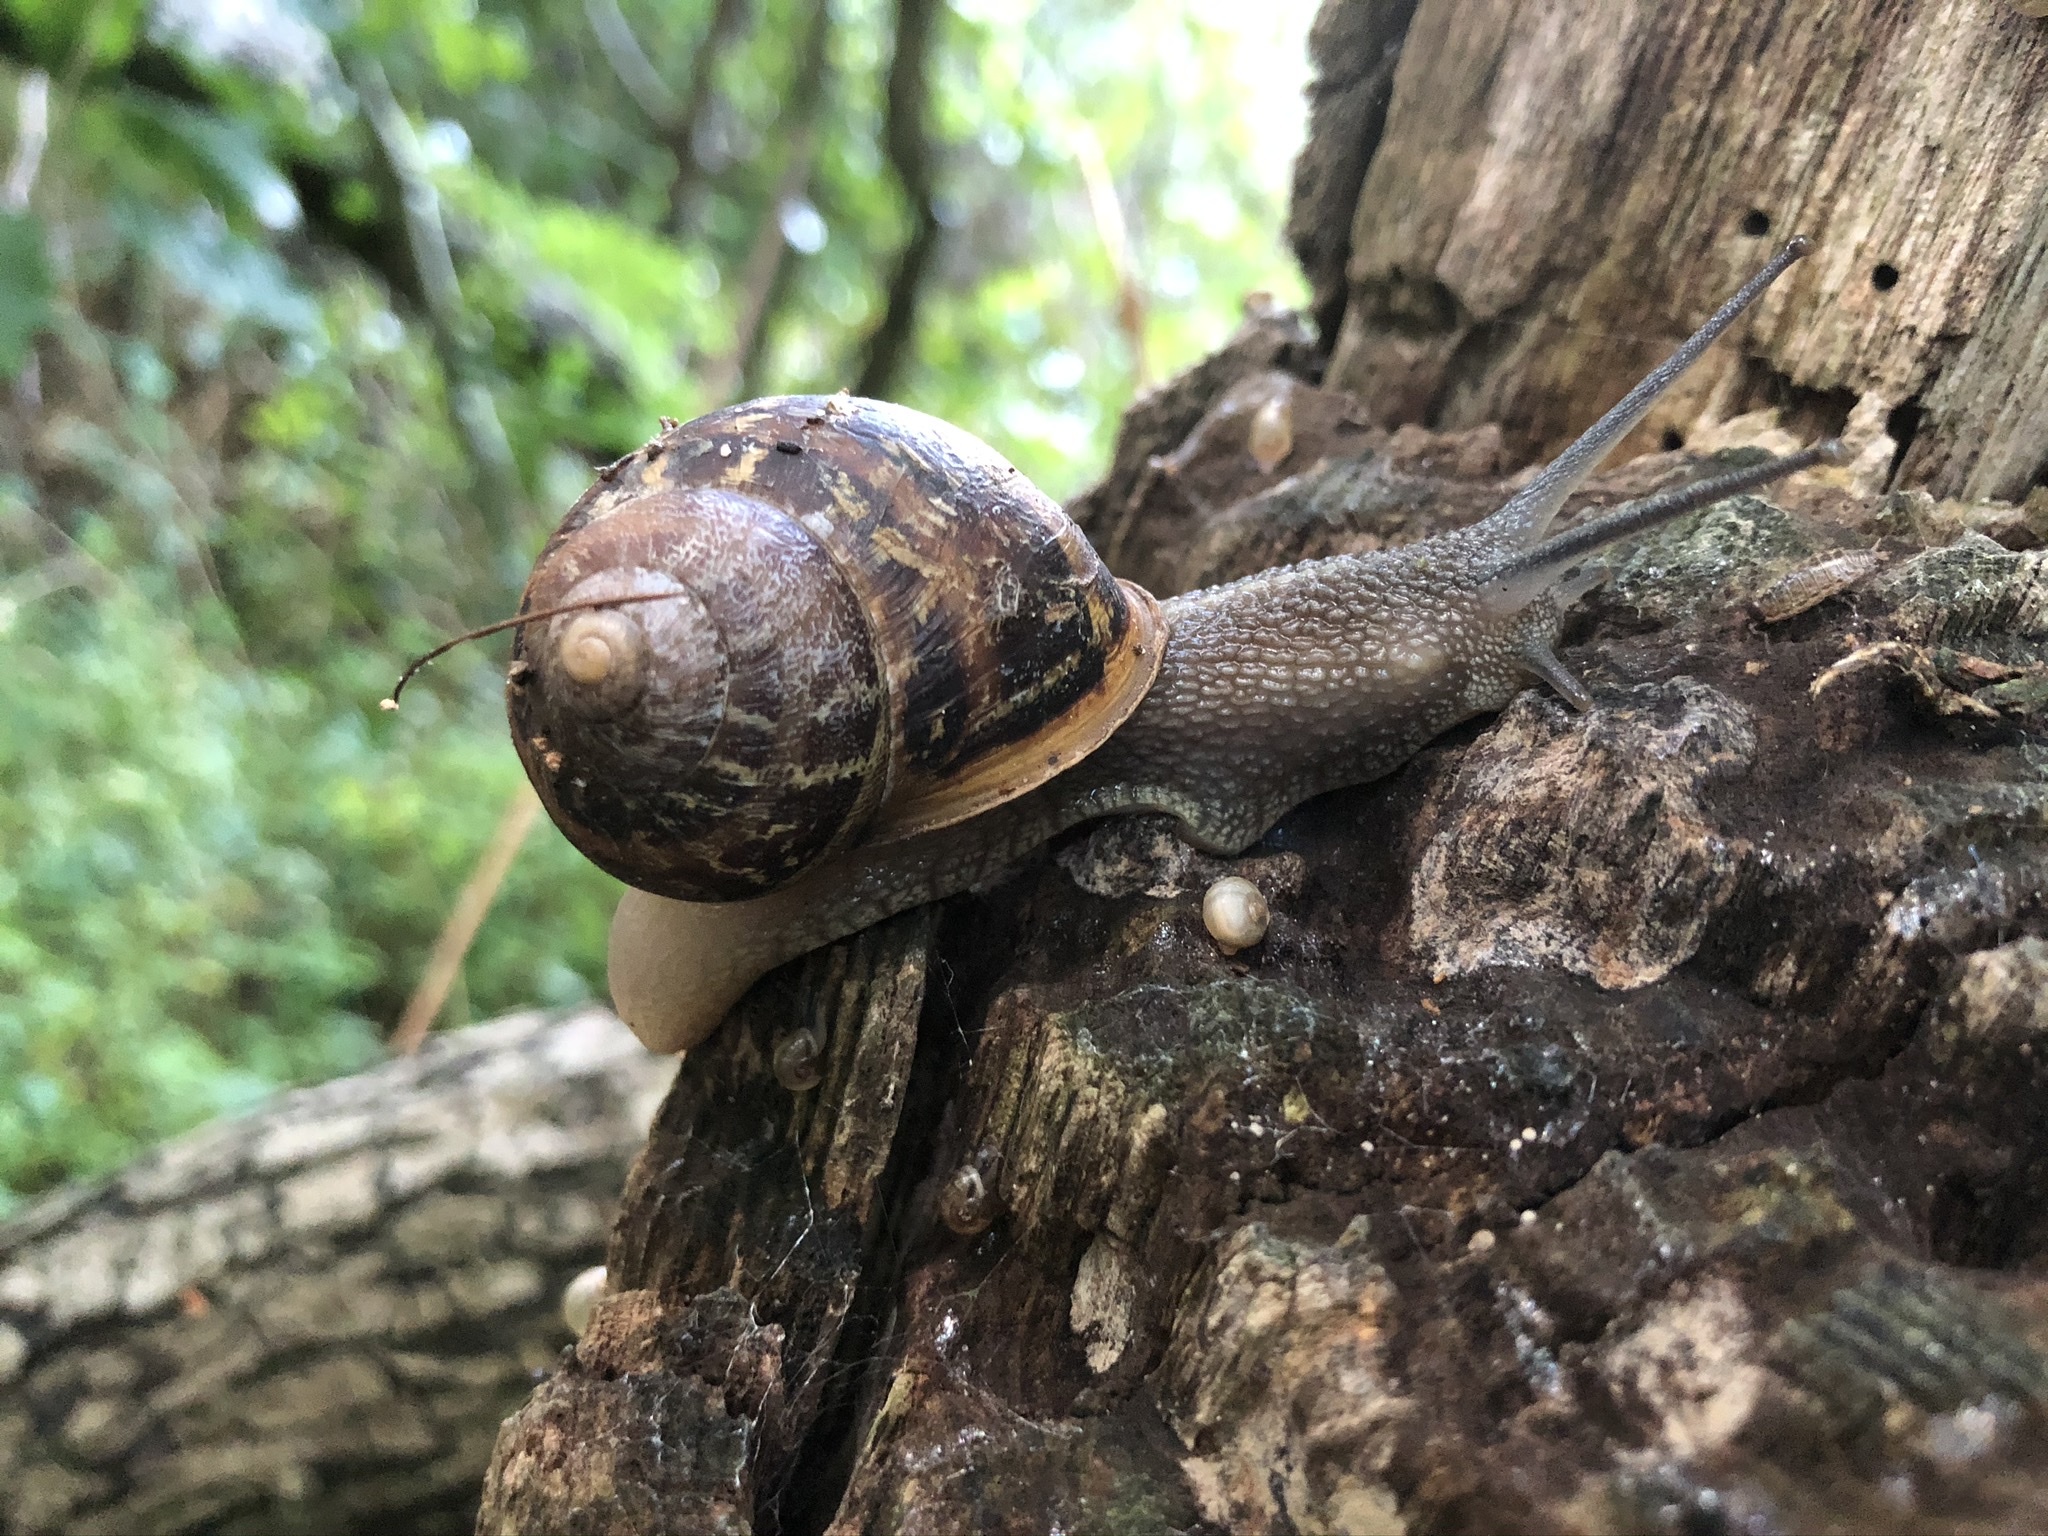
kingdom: Animalia
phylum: Mollusca
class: Gastropoda
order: Stylommatophora
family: Helicidae
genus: Cornu
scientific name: Cornu aspersum
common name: Brown garden snail
